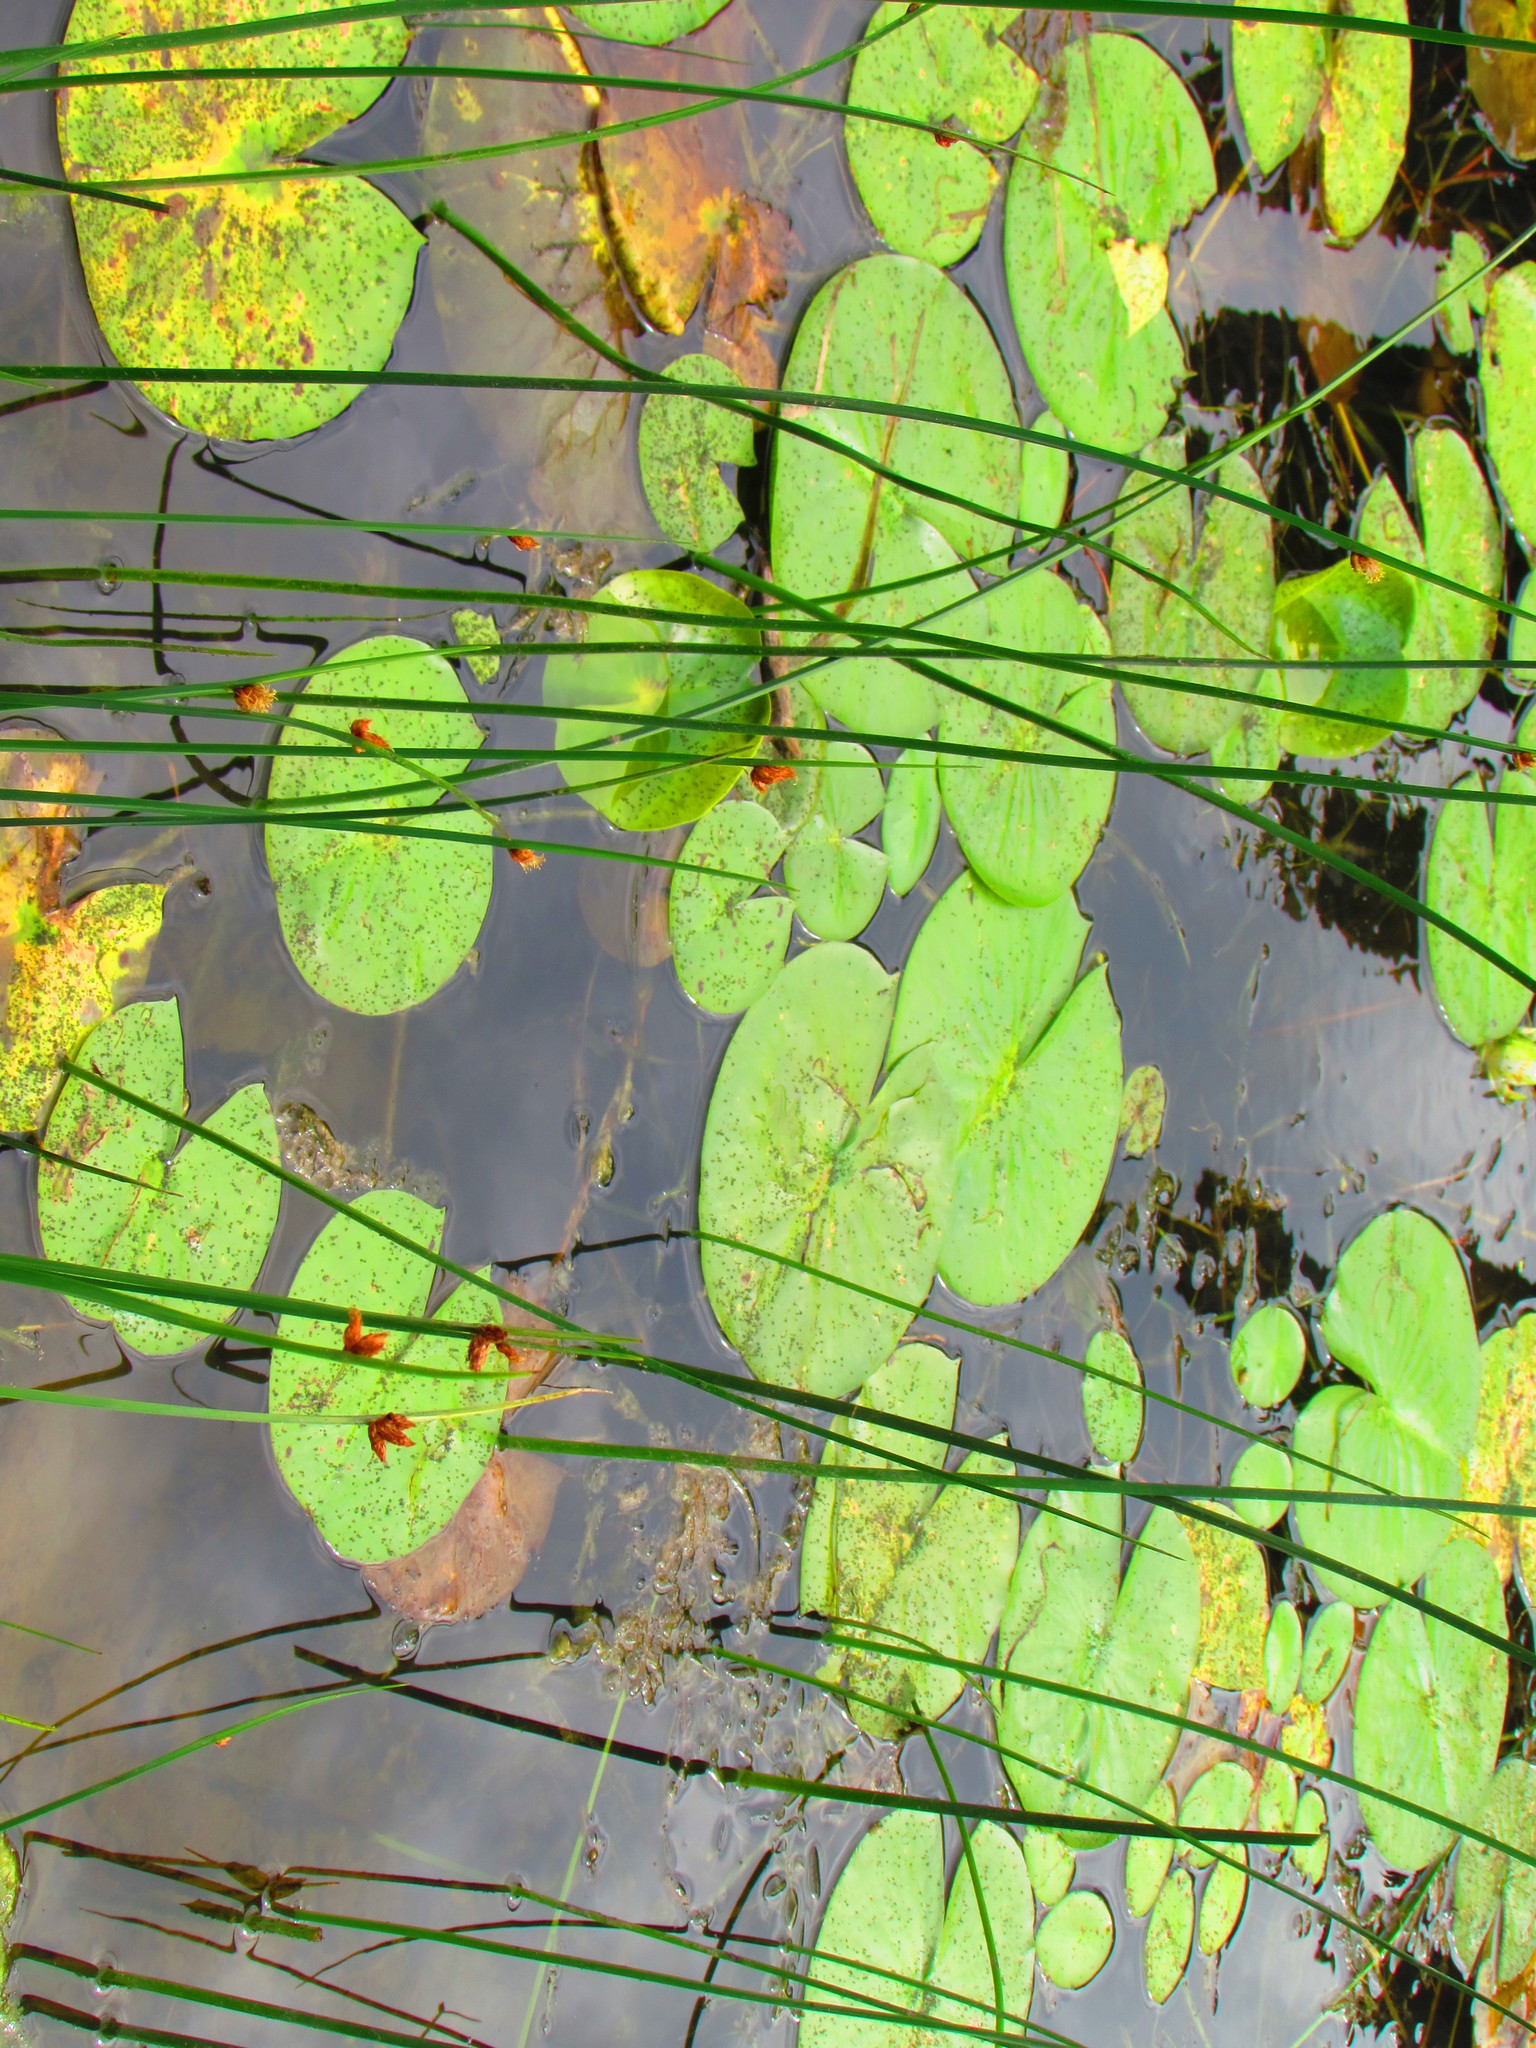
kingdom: Plantae
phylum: Tracheophyta
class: Magnoliopsida
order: Nymphaeales
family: Nymphaeaceae
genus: Nymphaea
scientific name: Nymphaea odorata
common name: Fragrant water-lily
